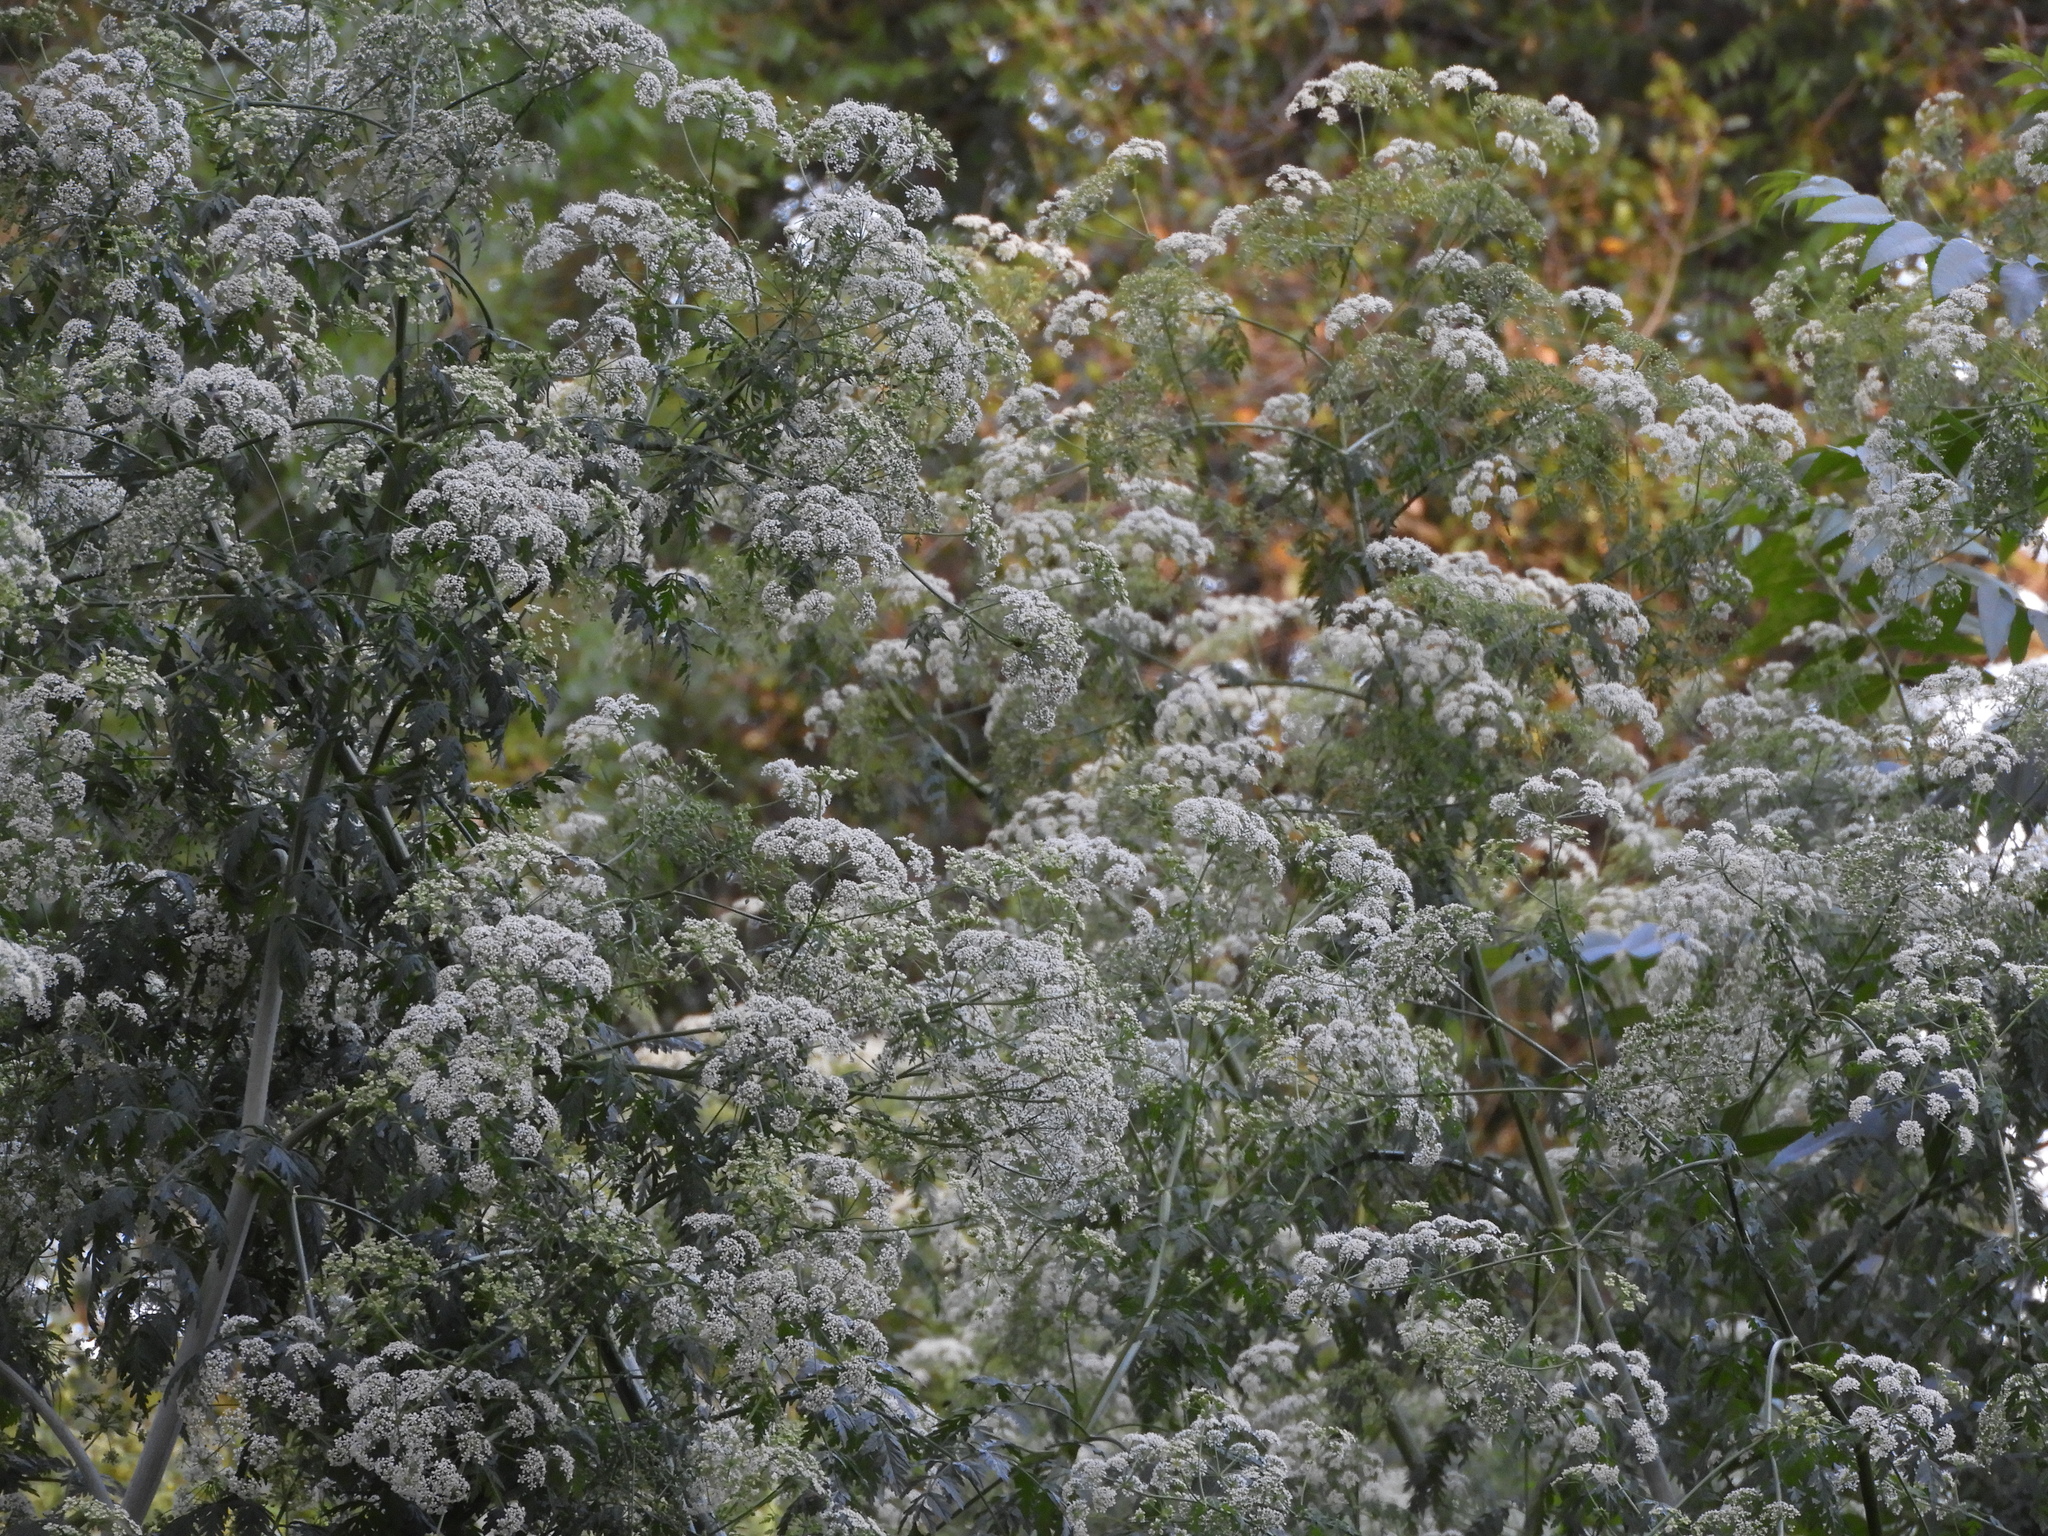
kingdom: Plantae
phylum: Tracheophyta
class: Magnoliopsida
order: Apiales
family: Apiaceae
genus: Conium
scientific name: Conium maculatum
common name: Hemlock
